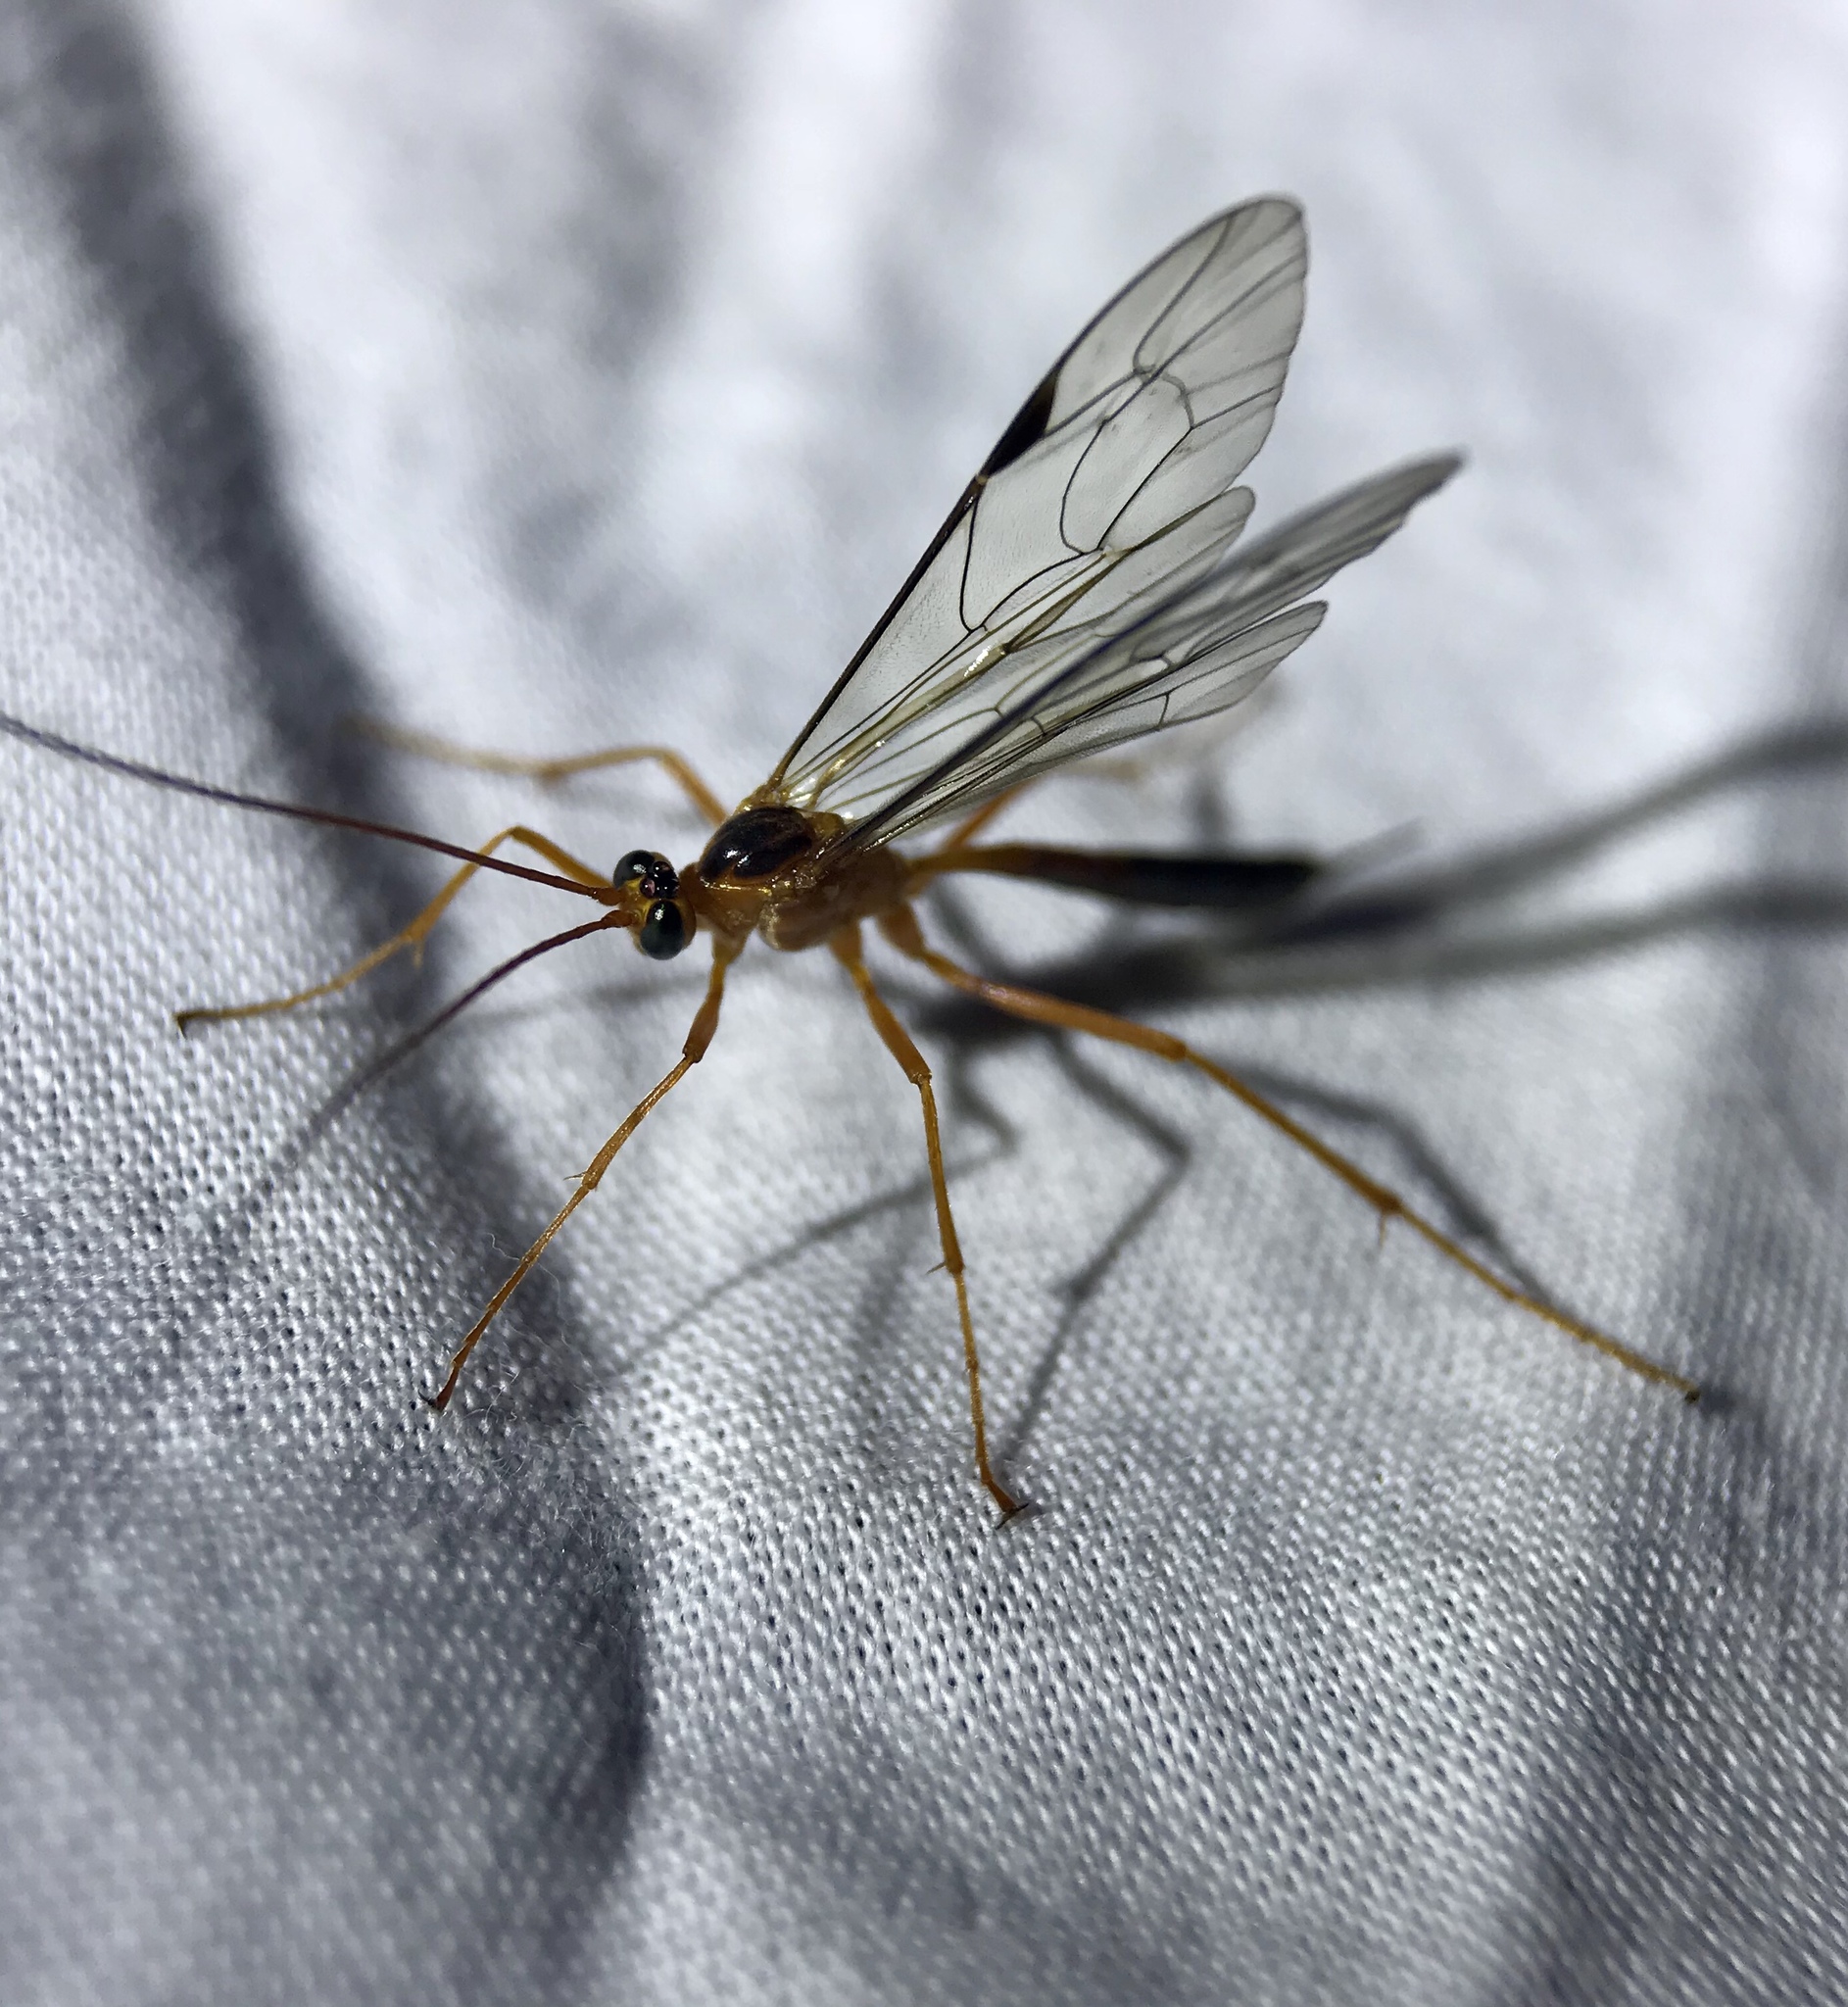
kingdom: Animalia
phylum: Arthropoda
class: Insecta
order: Hymenoptera
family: Ichneumonidae
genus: Netelia
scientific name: Netelia ephippiata
